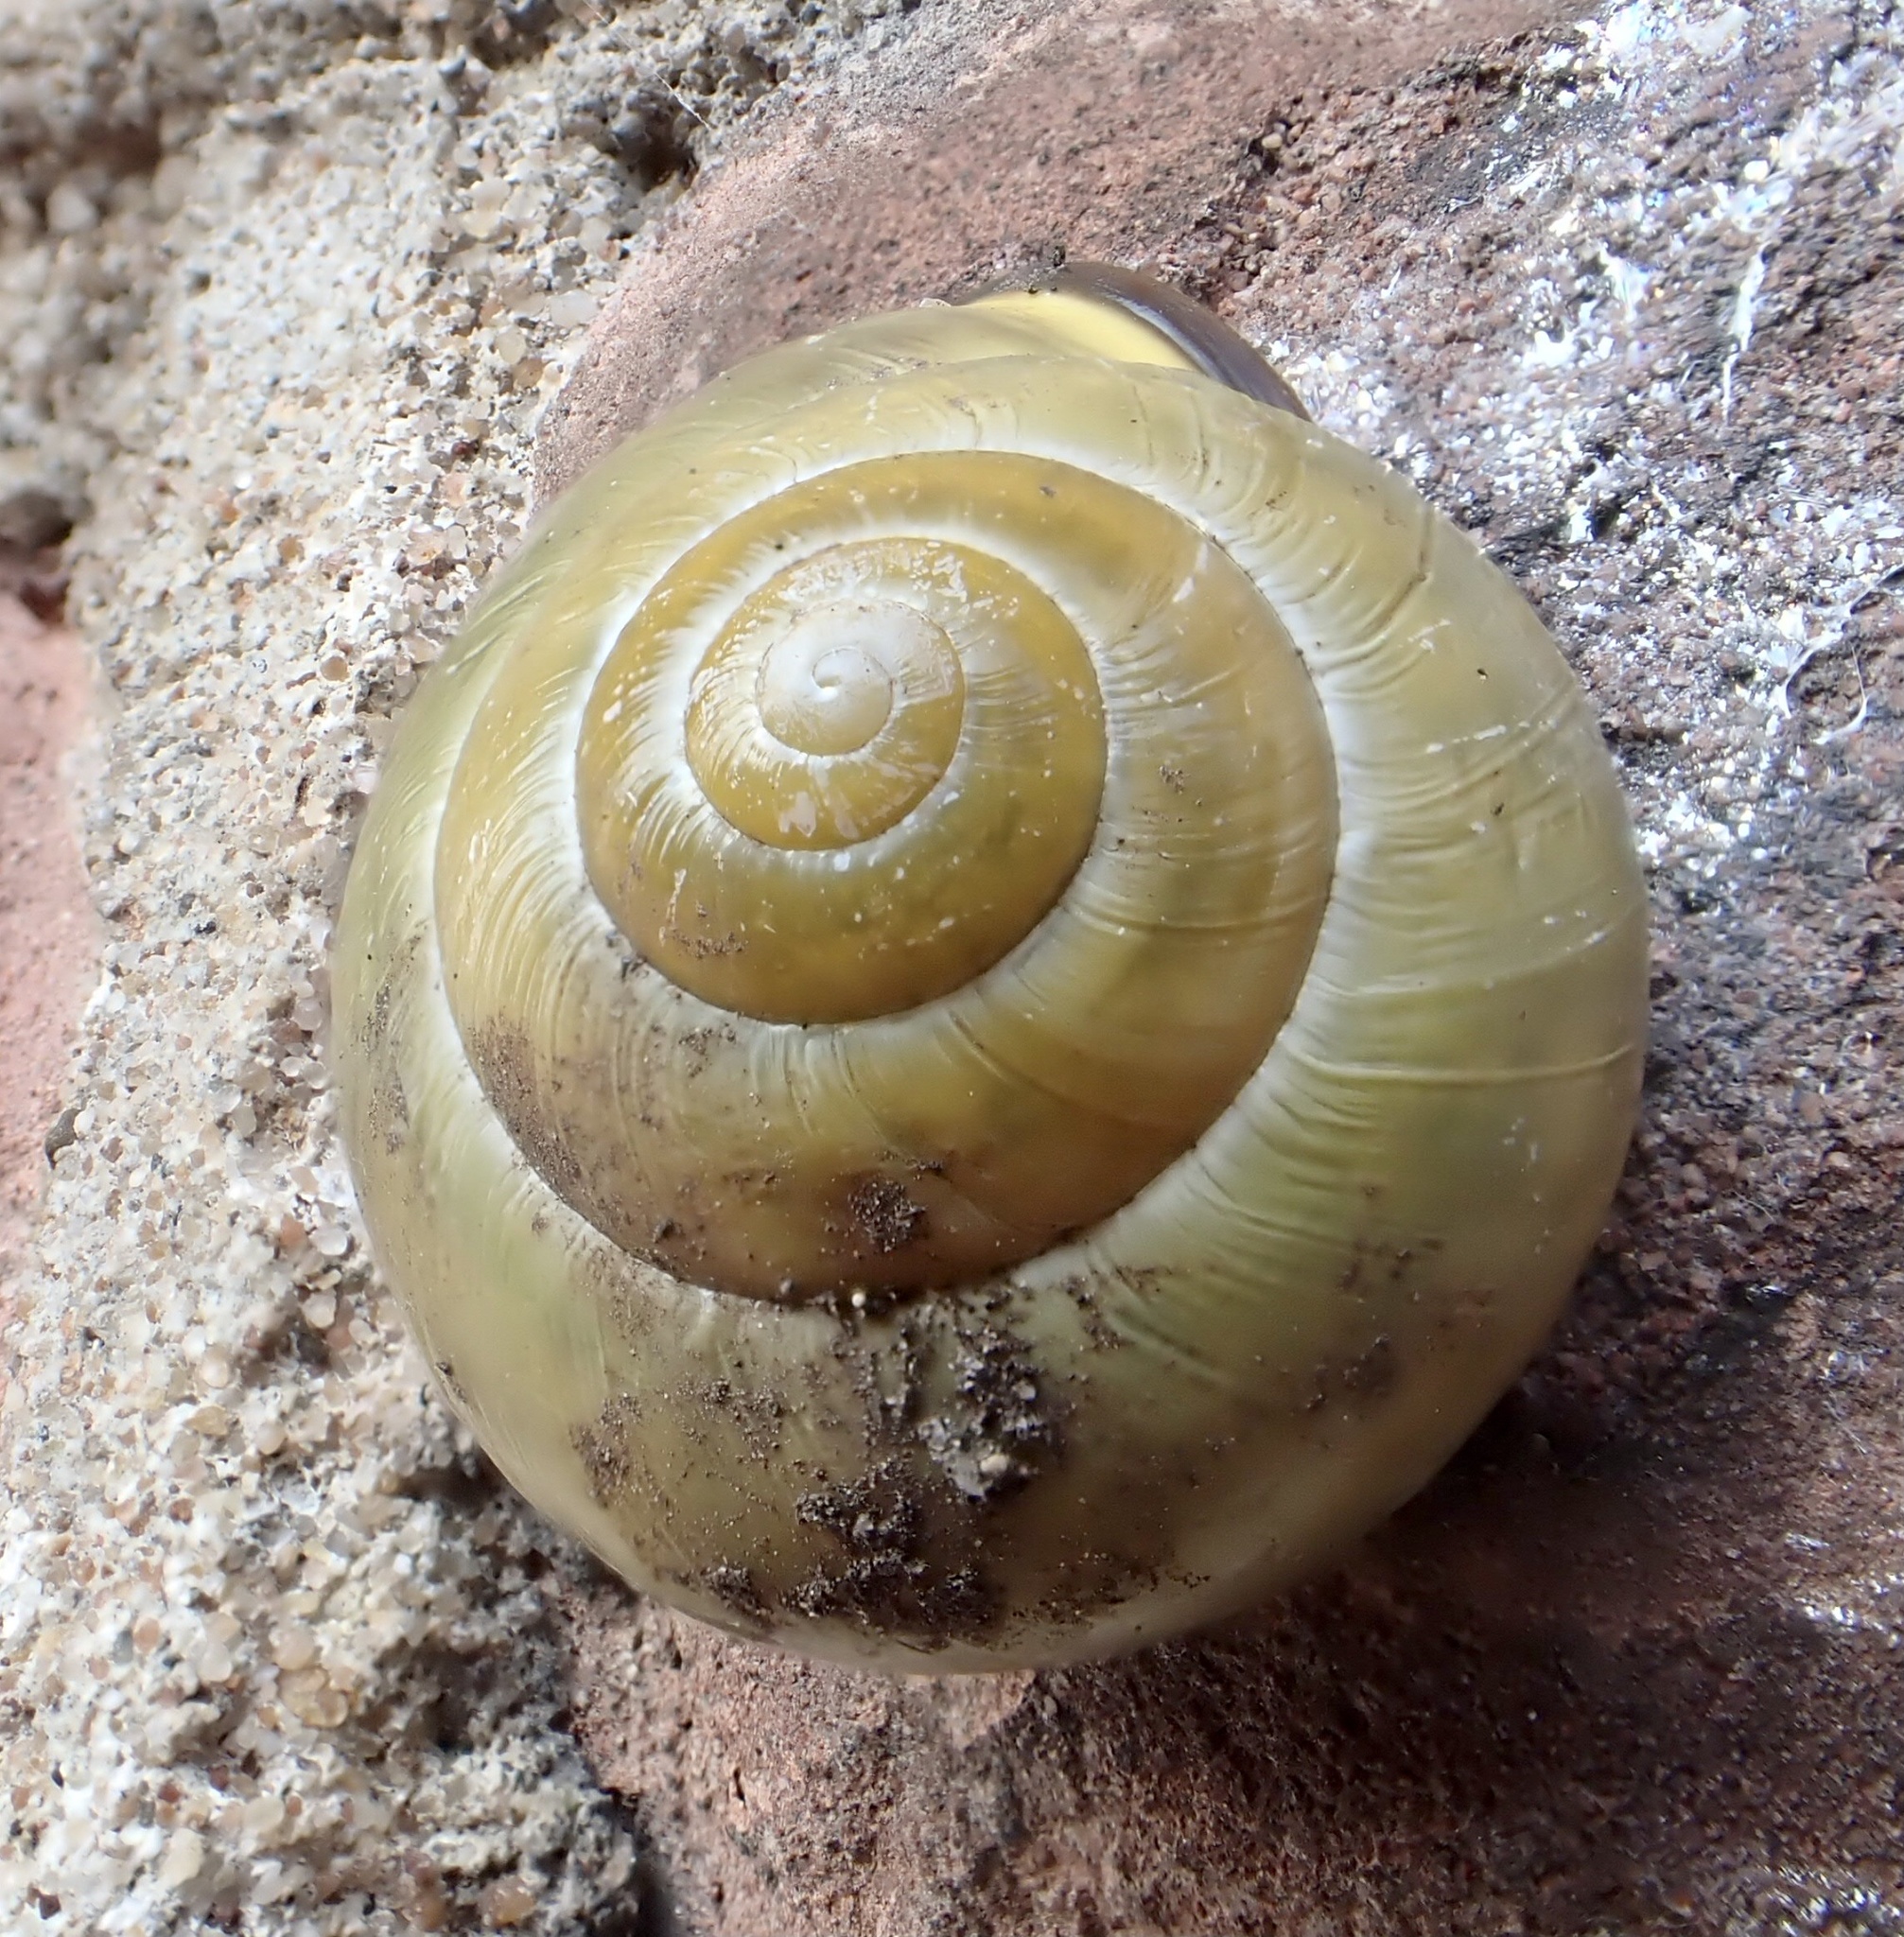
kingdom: Animalia
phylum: Mollusca
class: Gastropoda
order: Stylommatophora
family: Helicidae
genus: Cepaea
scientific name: Cepaea nemoralis
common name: Grovesnail
